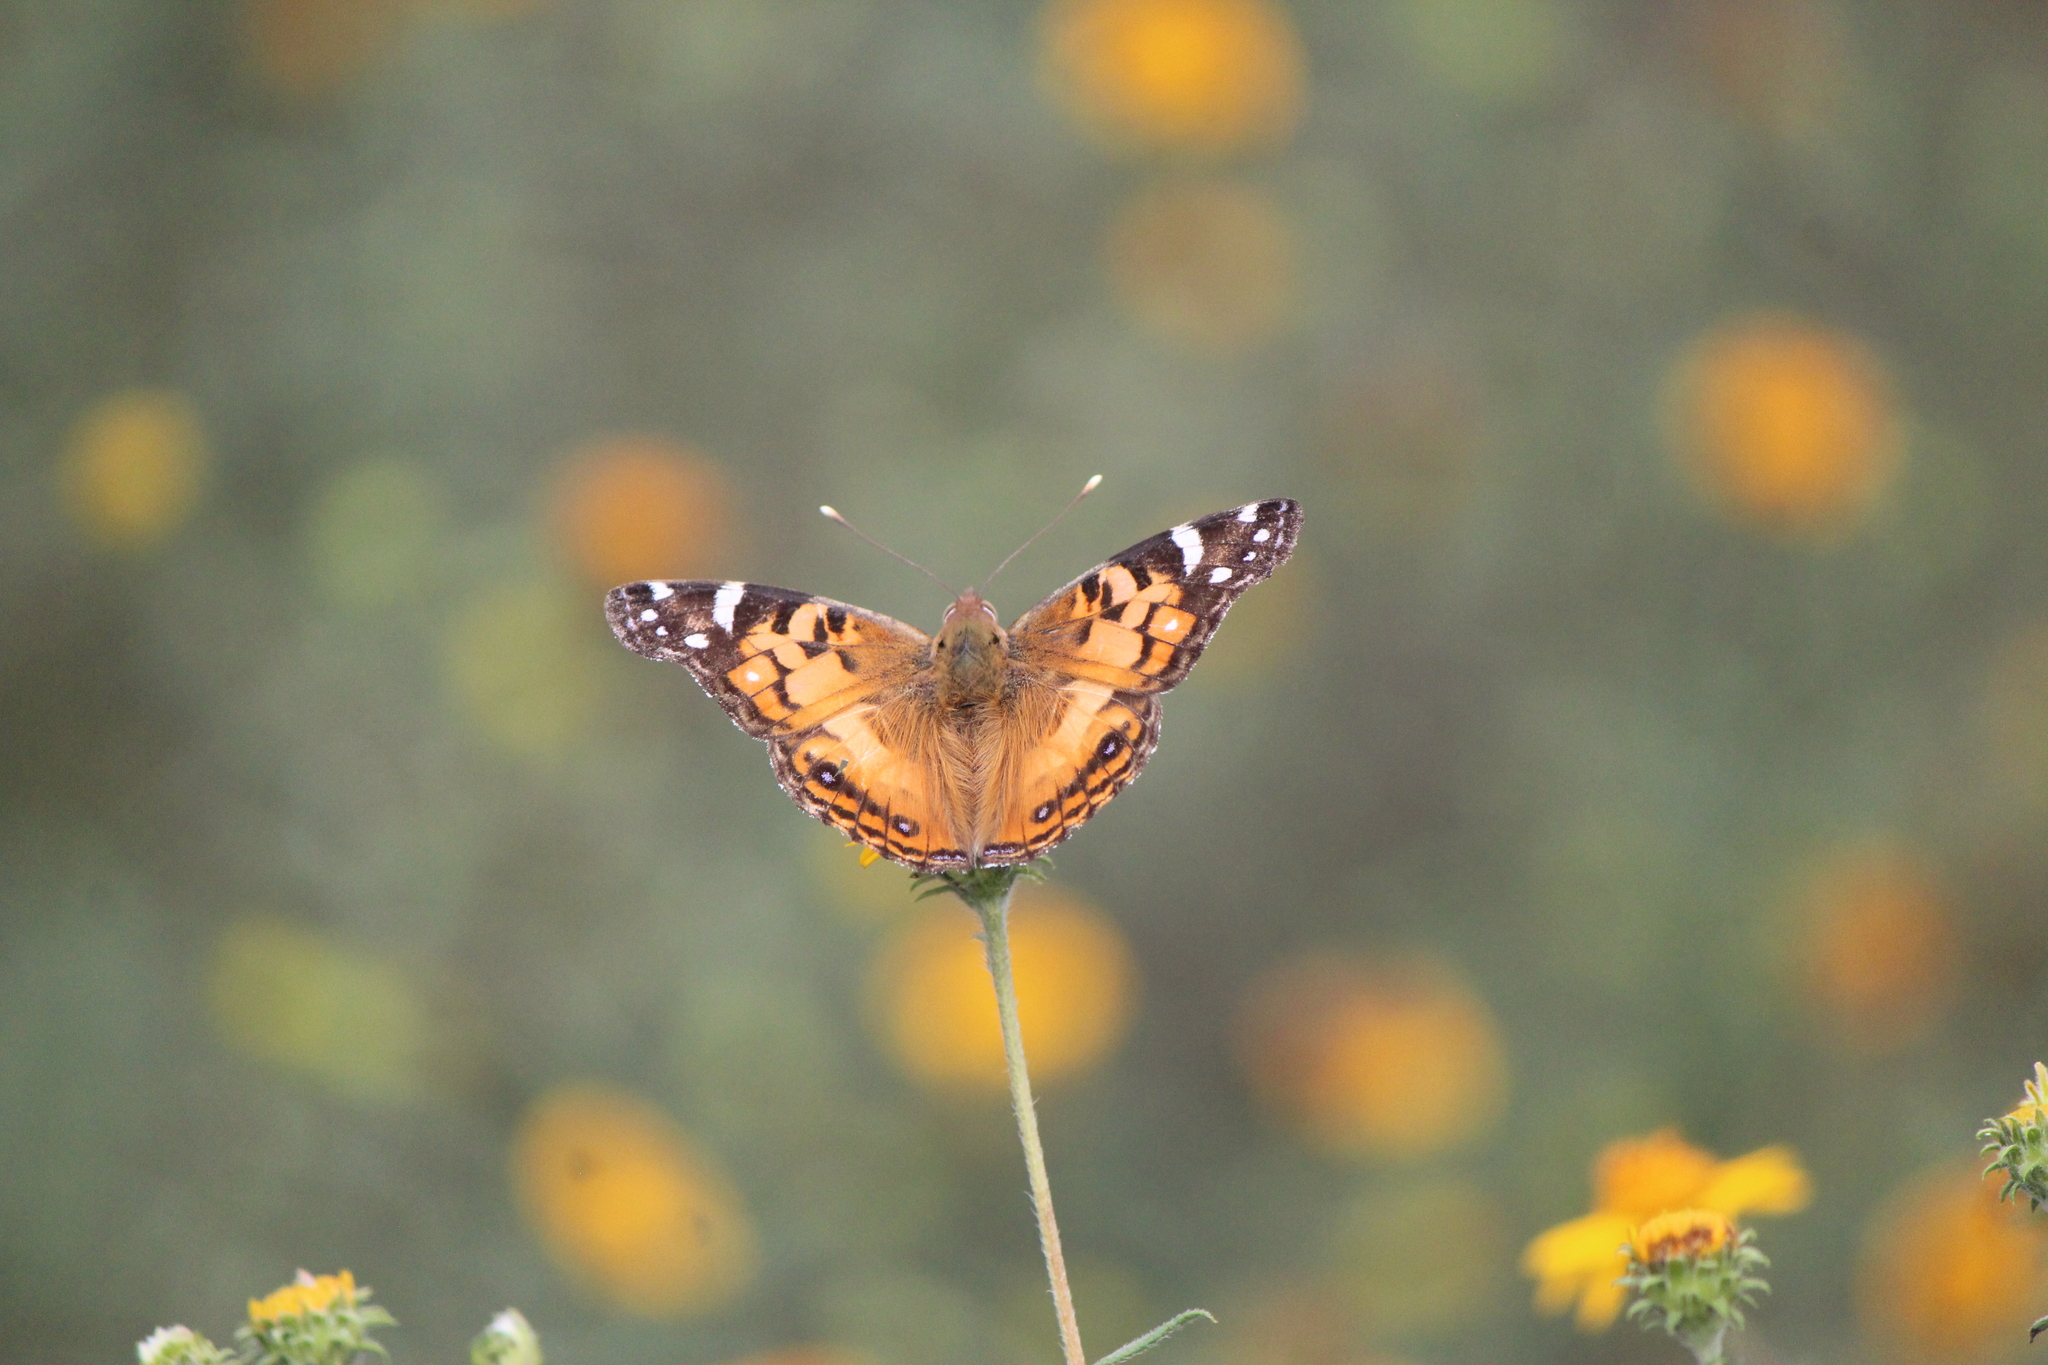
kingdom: Animalia
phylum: Arthropoda
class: Insecta
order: Lepidoptera
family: Nymphalidae
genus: Vanessa
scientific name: Vanessa virginiensis
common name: American lady
